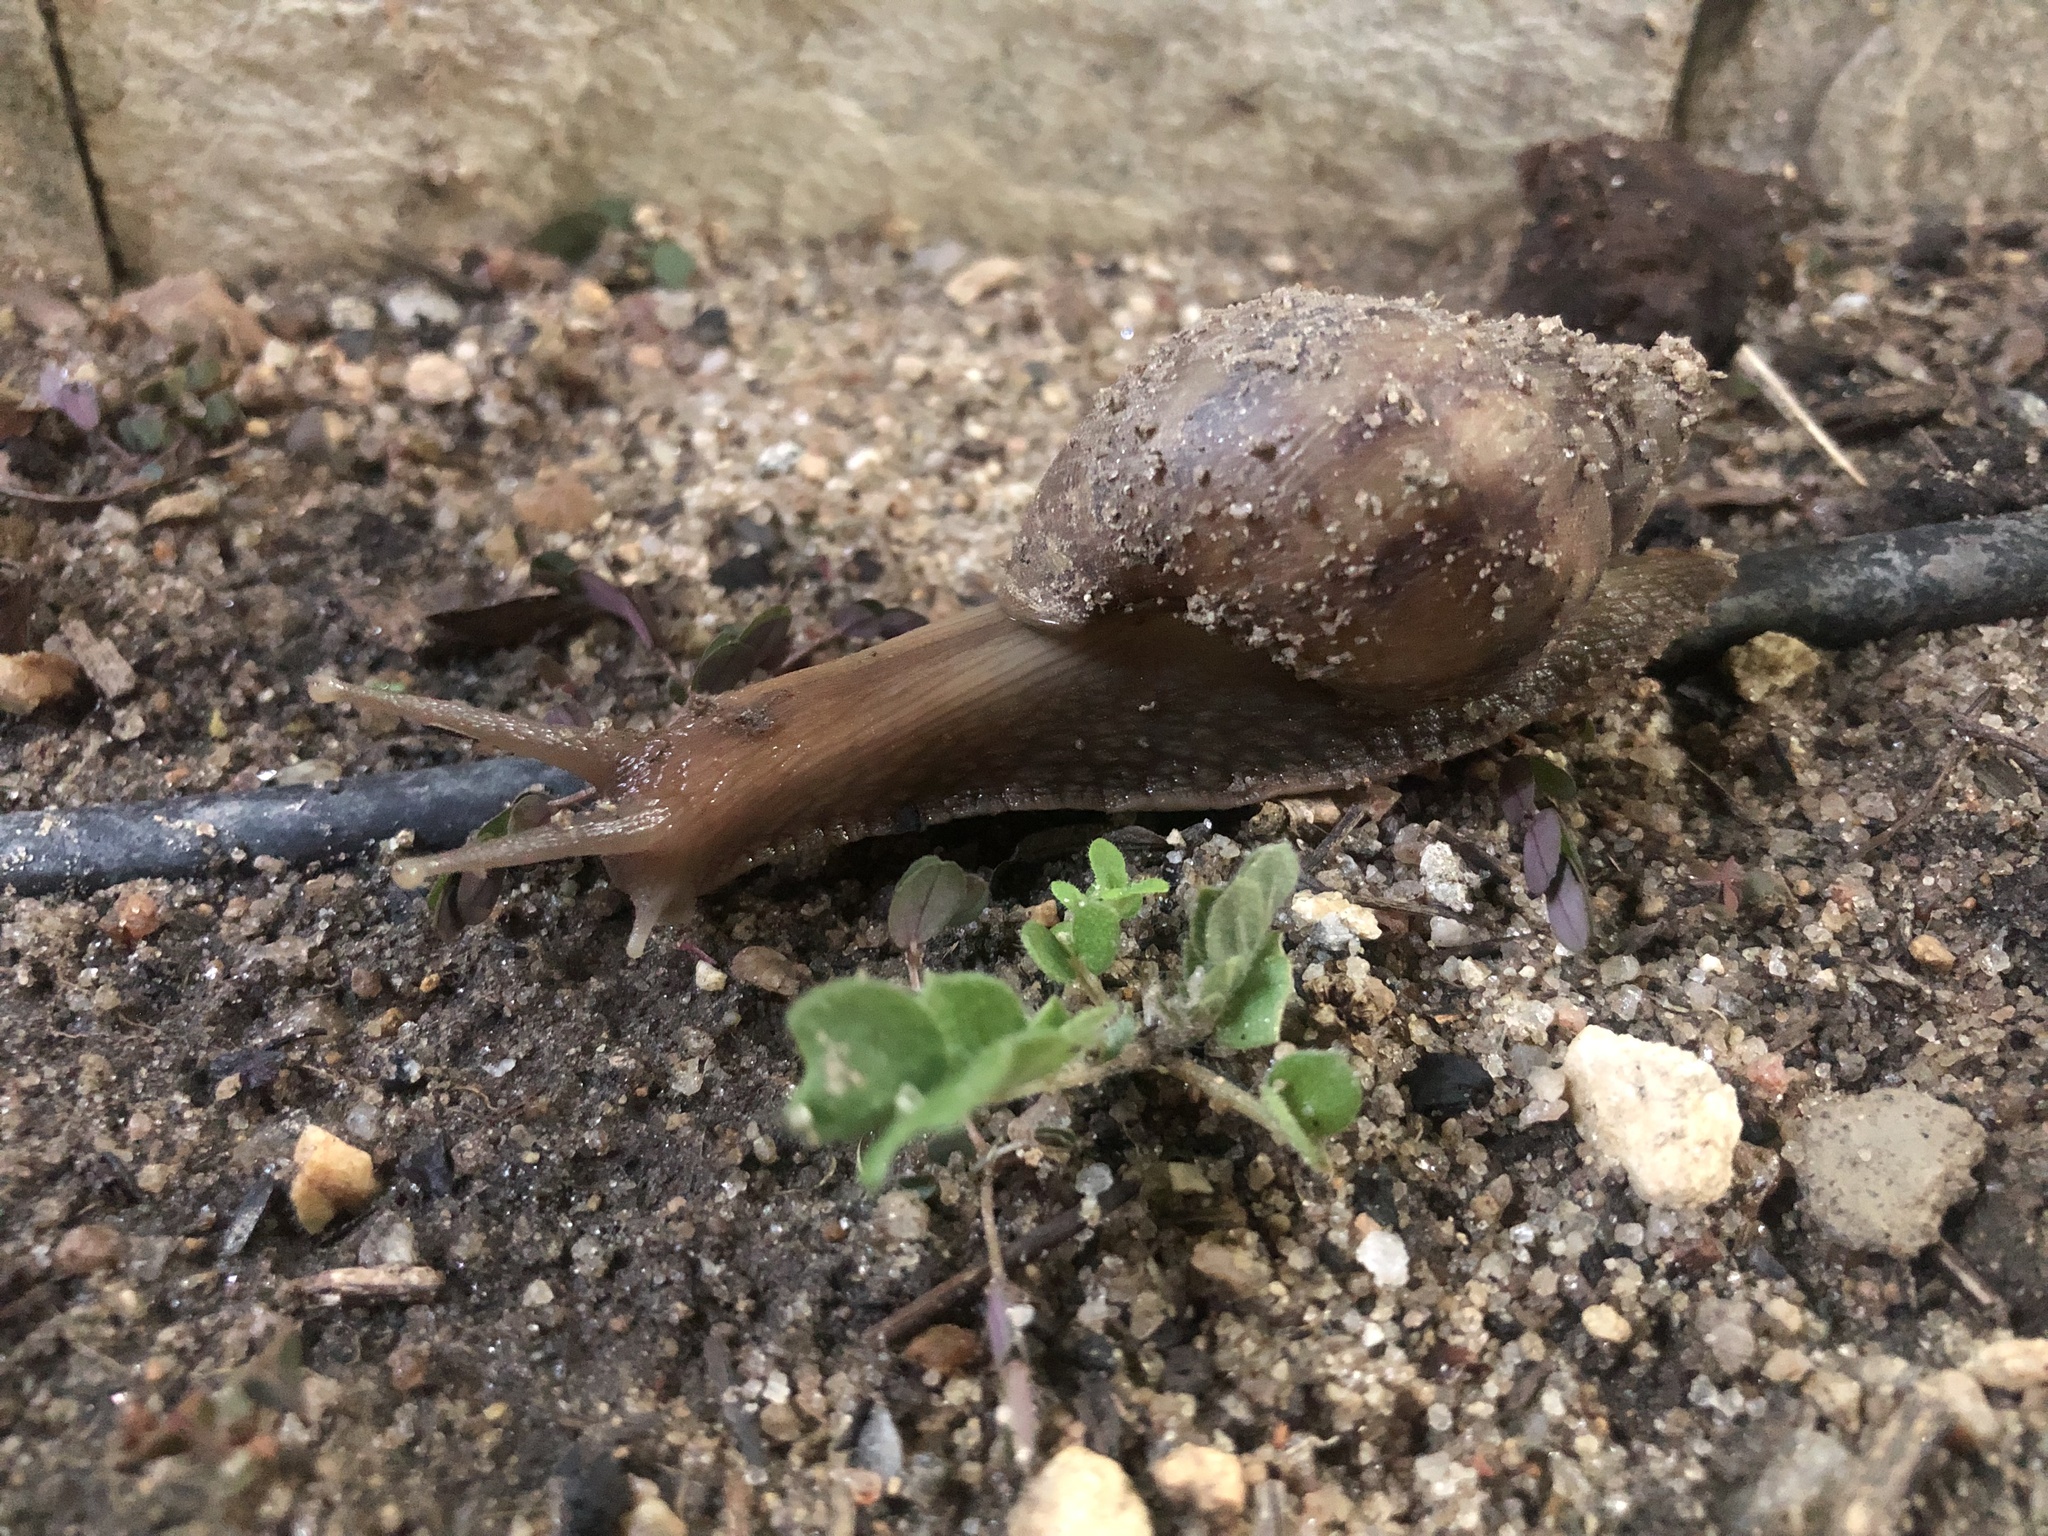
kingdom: Animalia
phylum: Mollusca
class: Gastropoda
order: Stylommatophora
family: Achatinidae
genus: Lissachatina
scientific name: Lissachatina fulica
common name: Giant african snail
